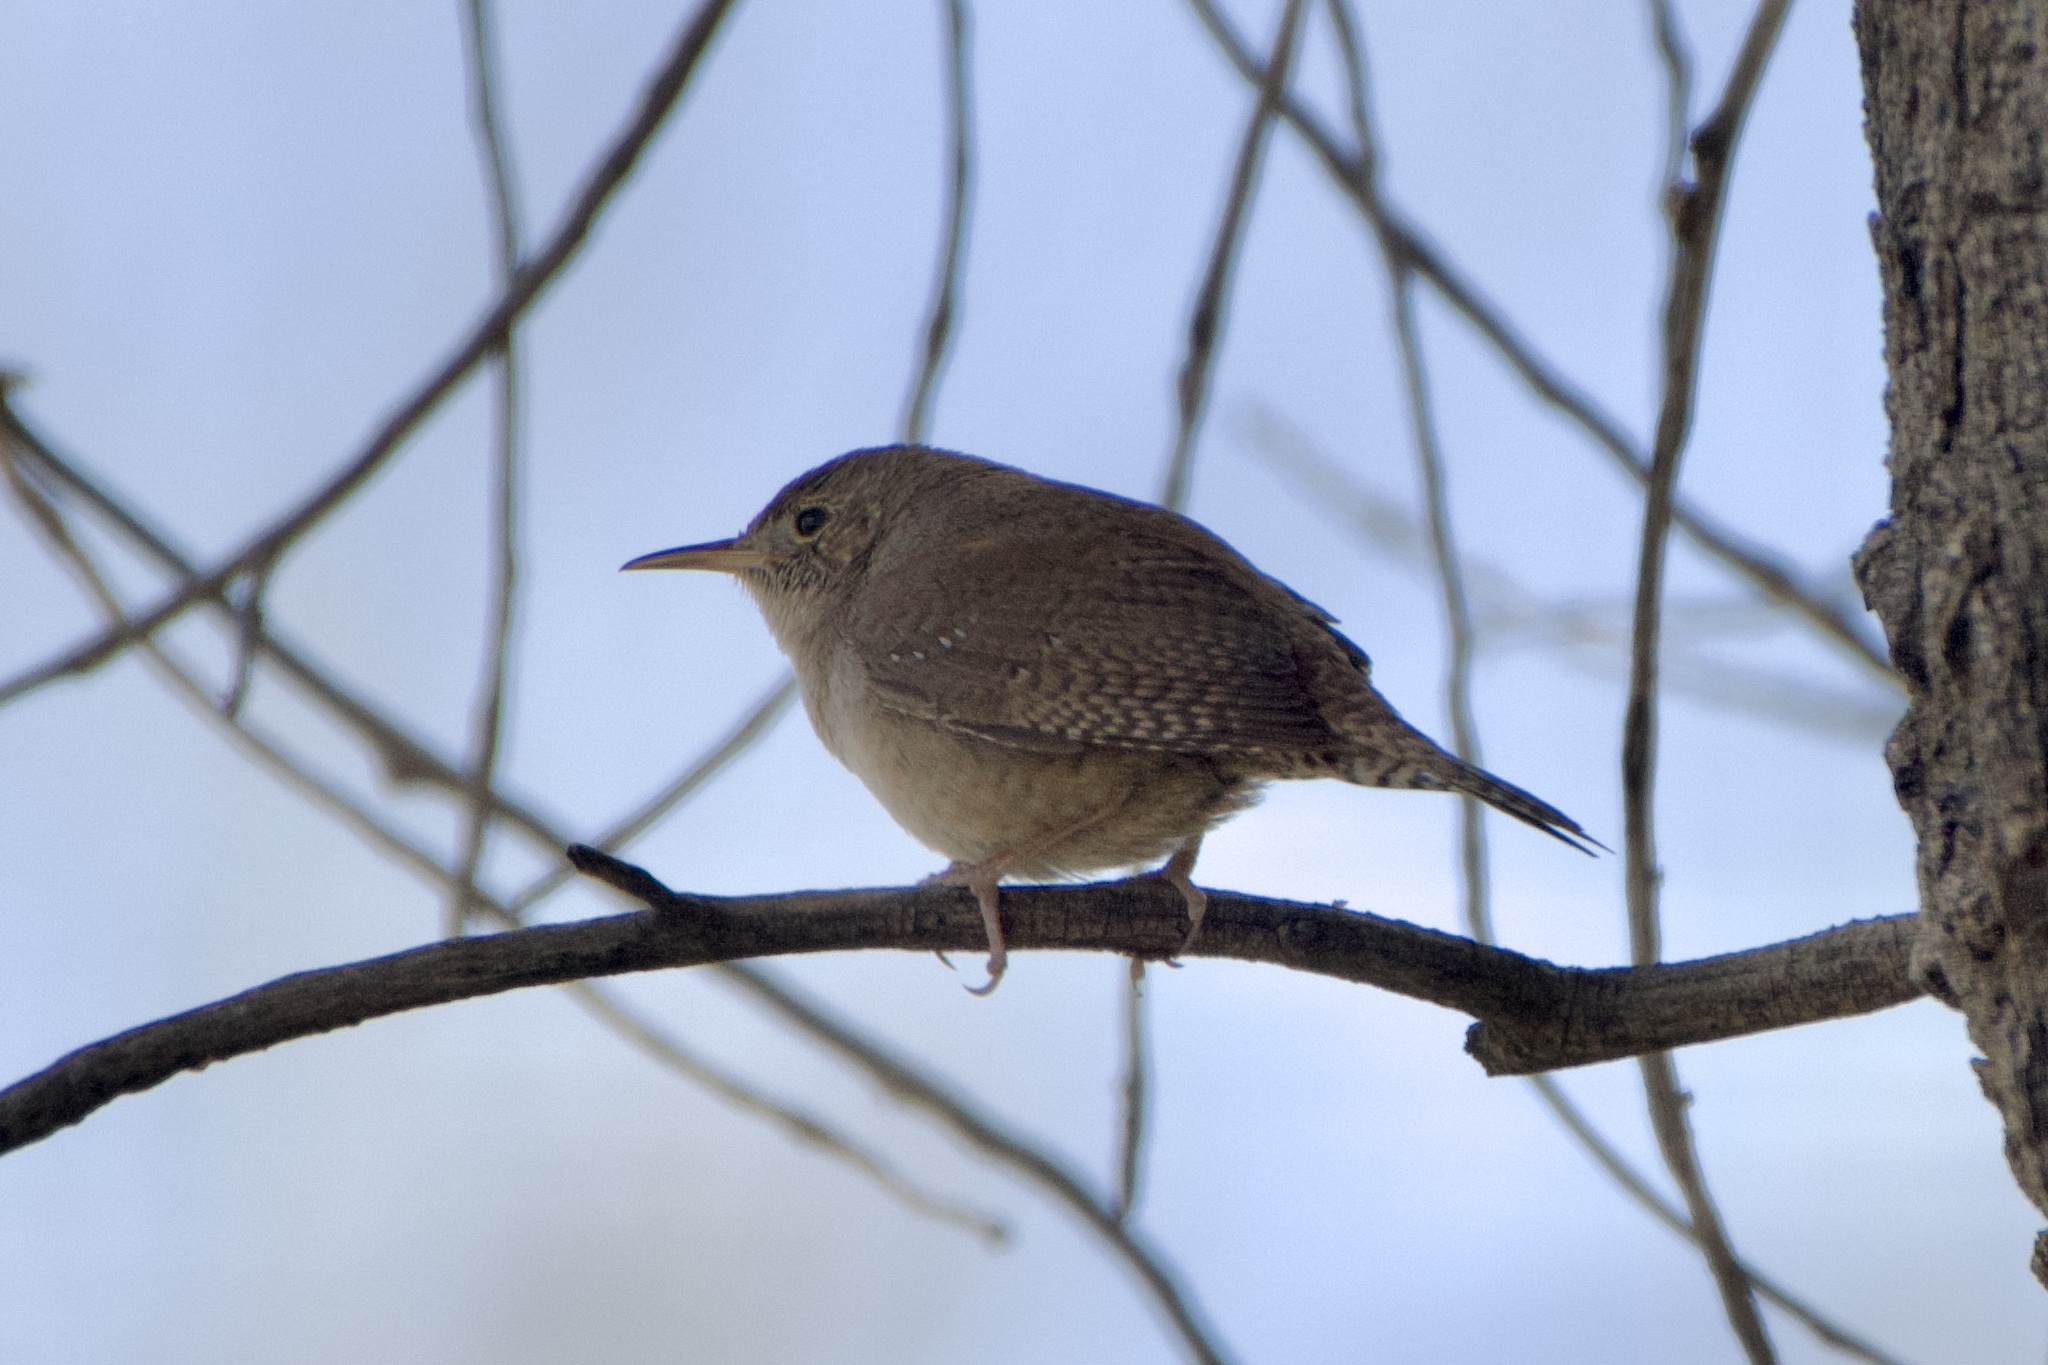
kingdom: Animalia
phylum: Chordata
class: Aves
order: Passeriformes
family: Troglodytidae
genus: Troglodytes
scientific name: Troglodytes aedon
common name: House wren
